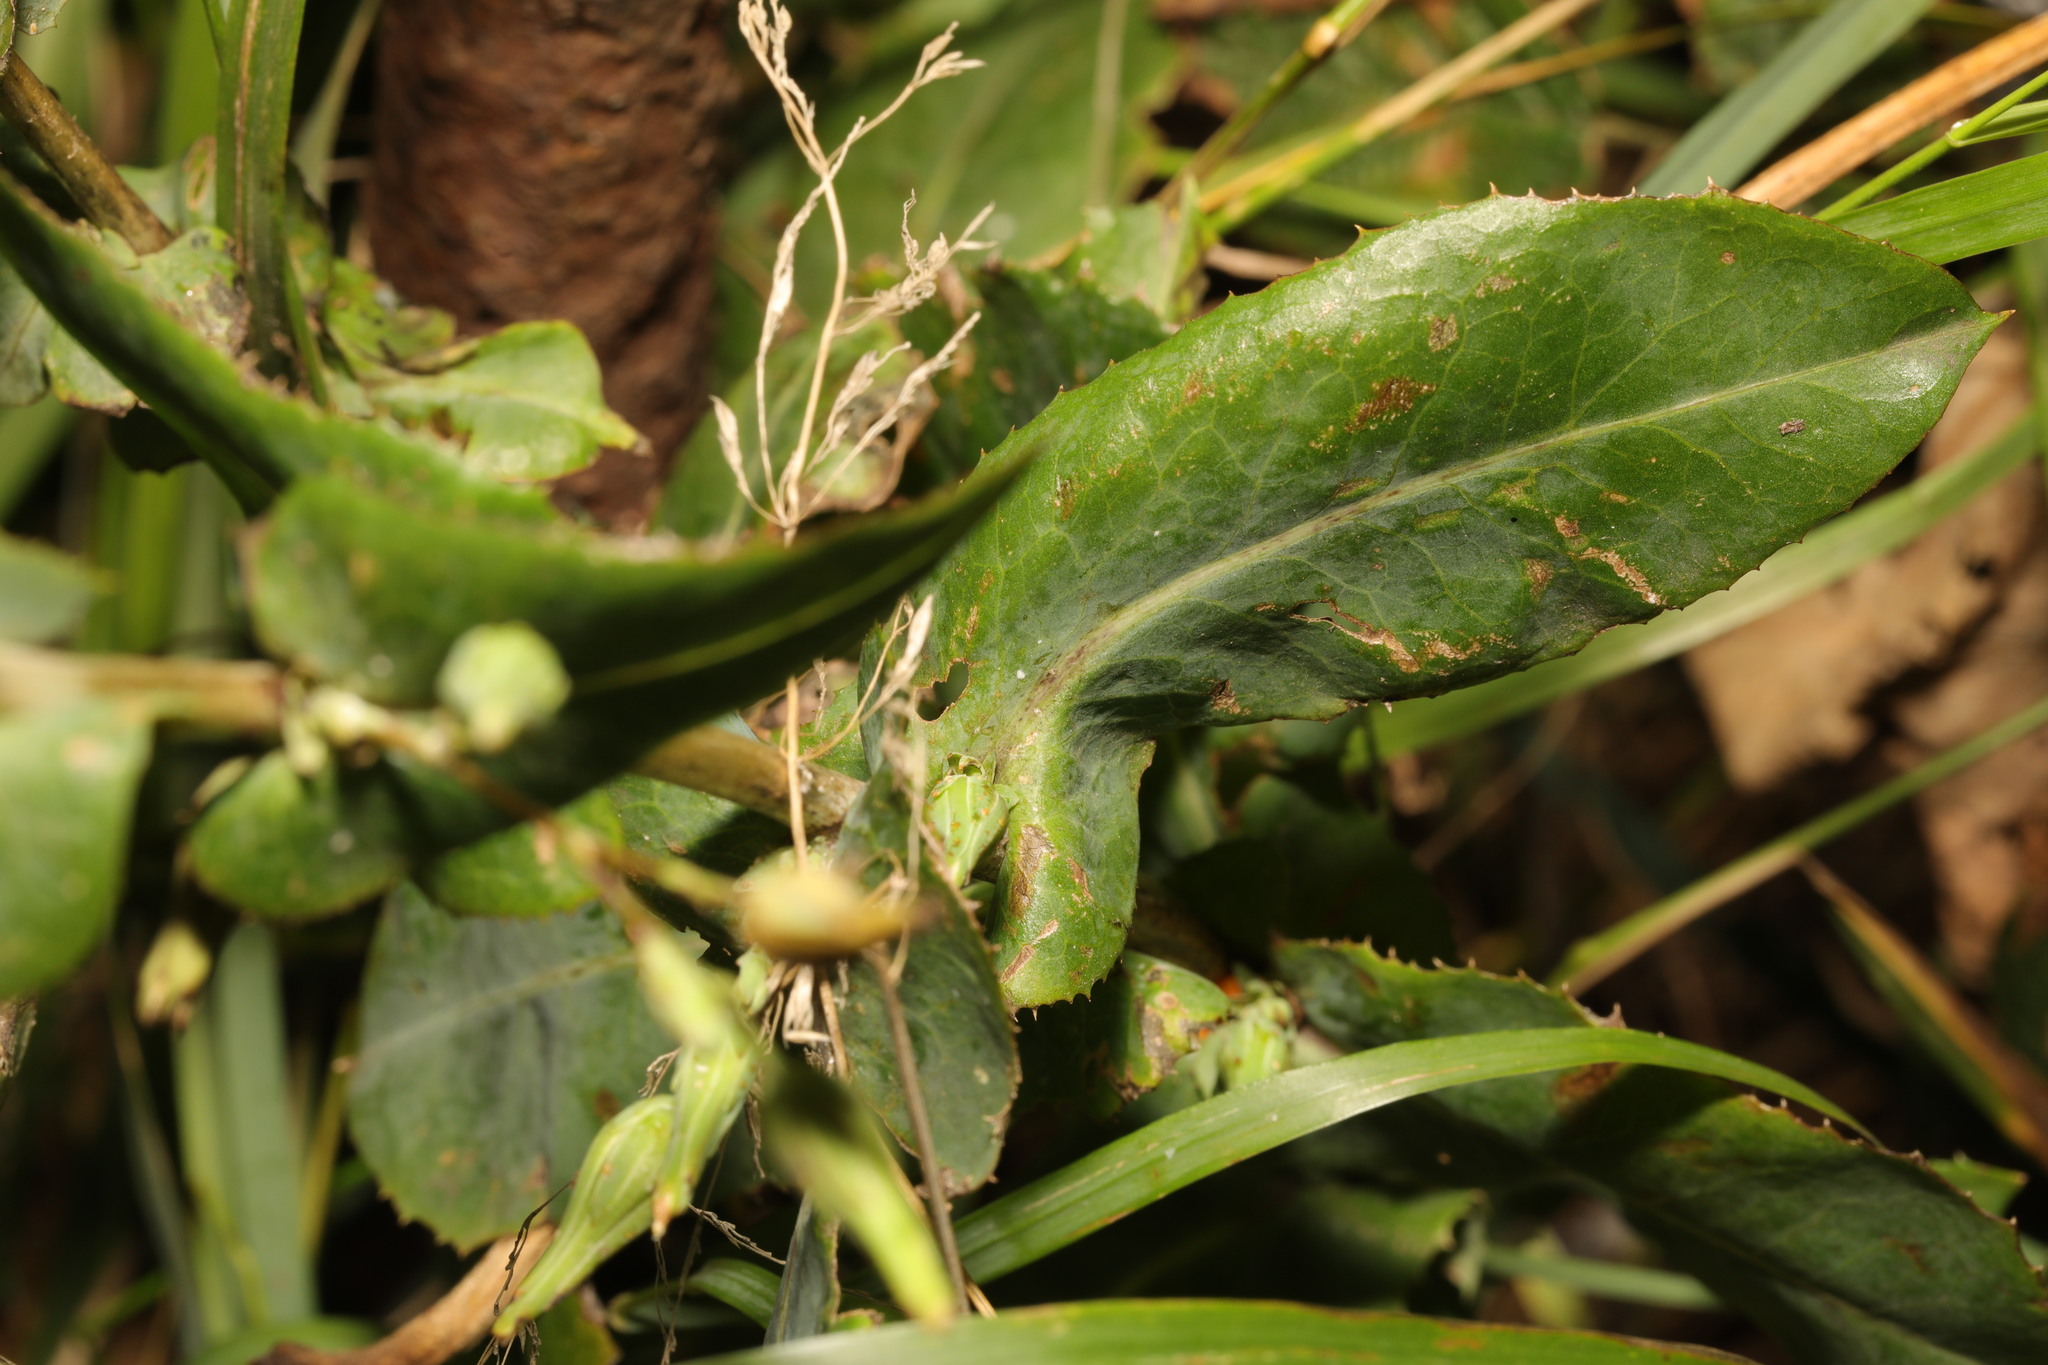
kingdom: Plantae
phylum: Tracheophyta
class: Magnoliopsida
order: Asterales
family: Asteraceae
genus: Lactuca
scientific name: Lactuca serriola
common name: Prickly lettuce
